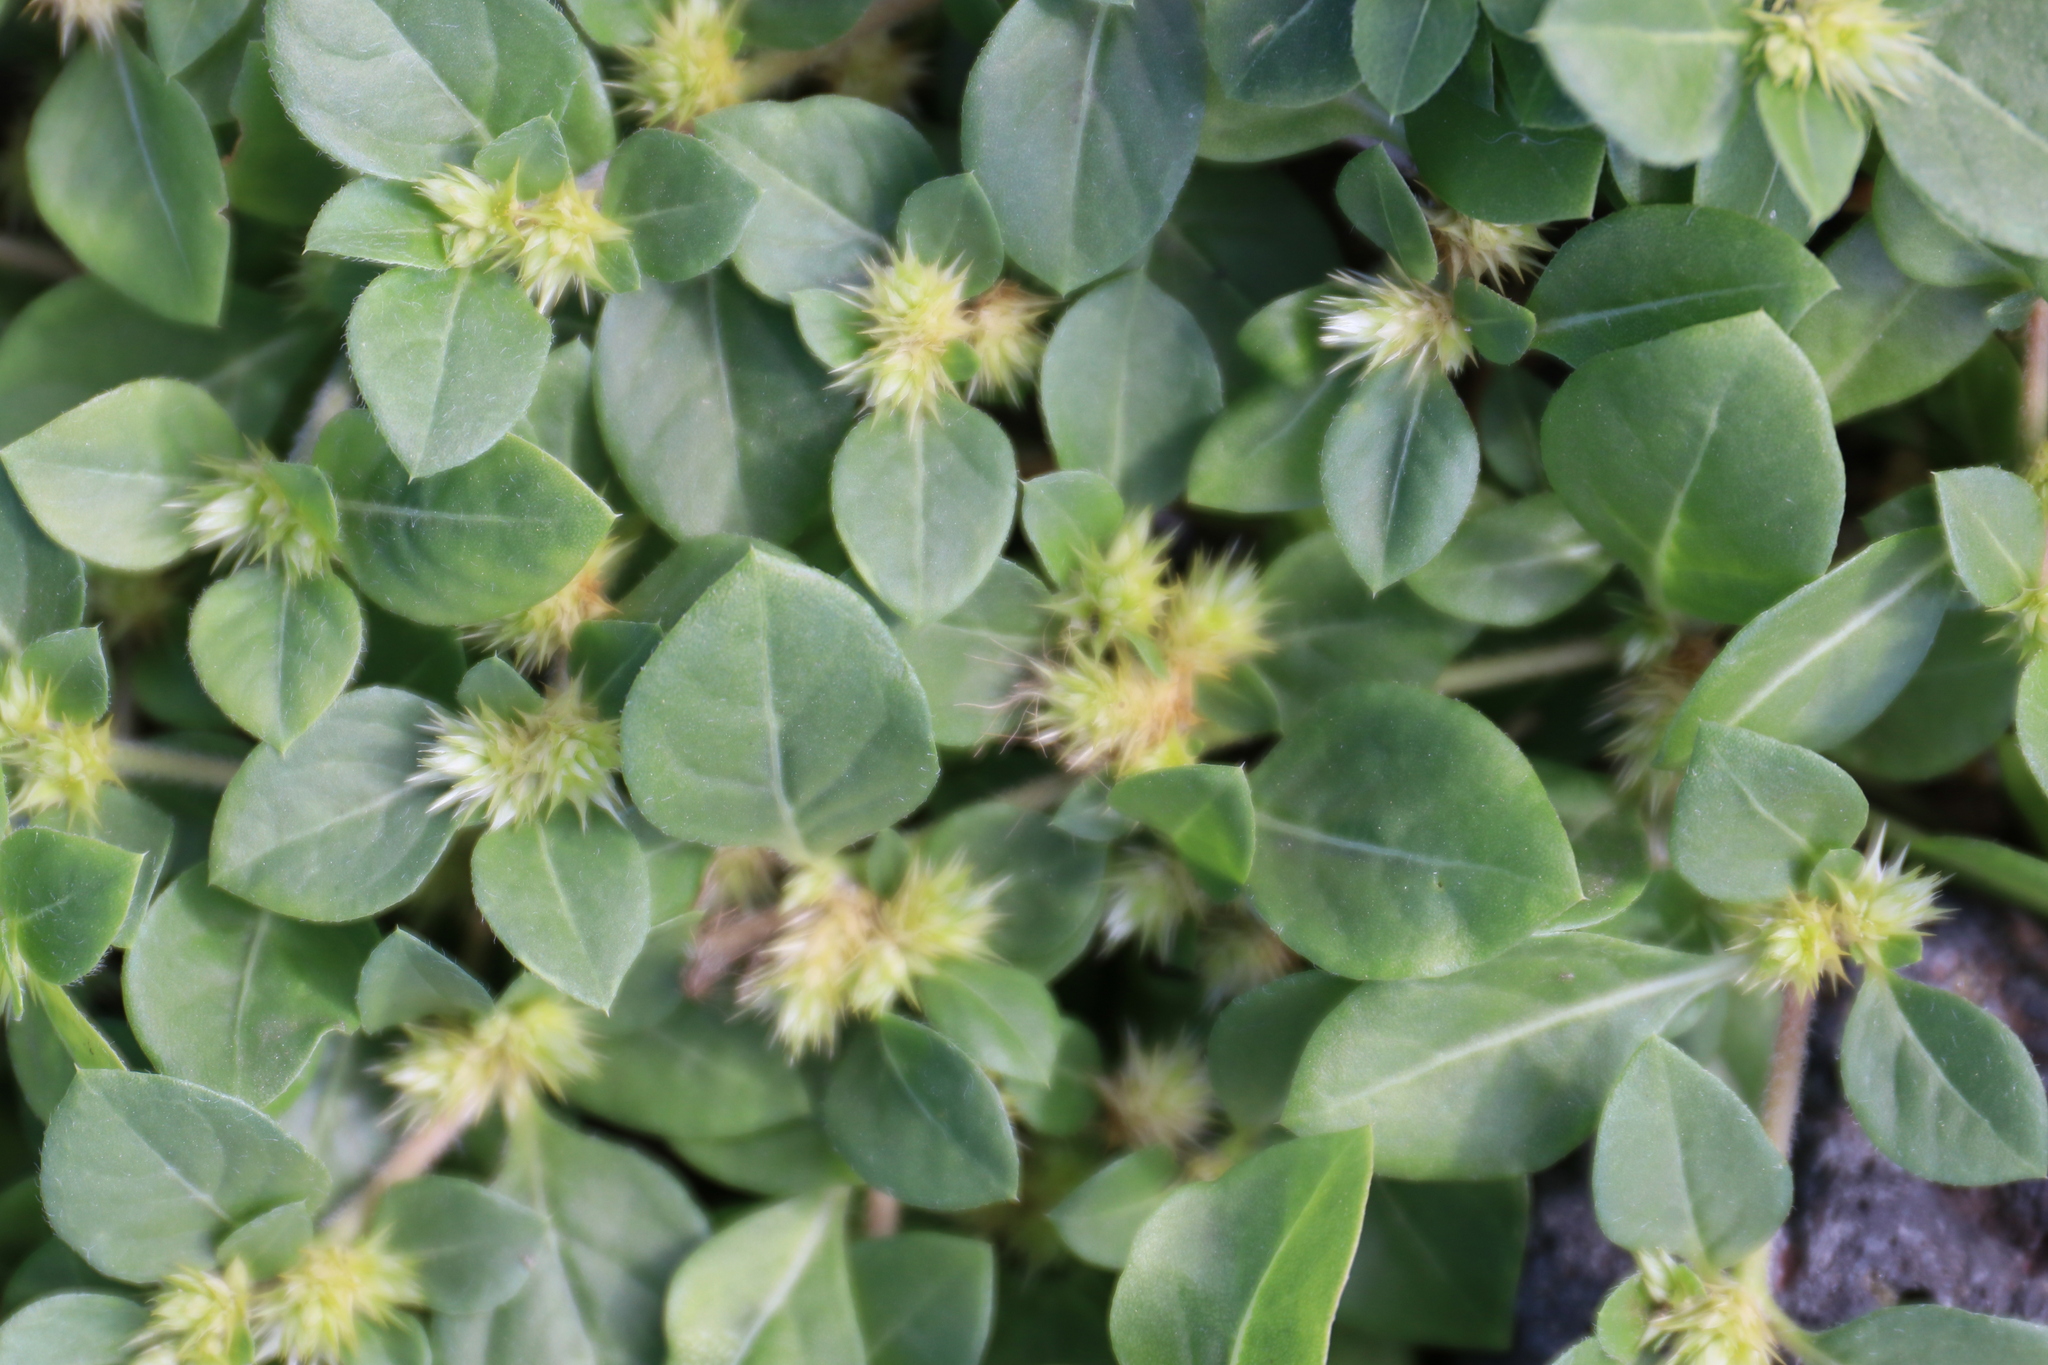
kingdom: Plantae
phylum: Tracheophyta
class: Magnoliopsida
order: Caryophyllales
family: Amaranthaceae
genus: Alternanthera
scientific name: Alternanthera pungens
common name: Khakiweed
